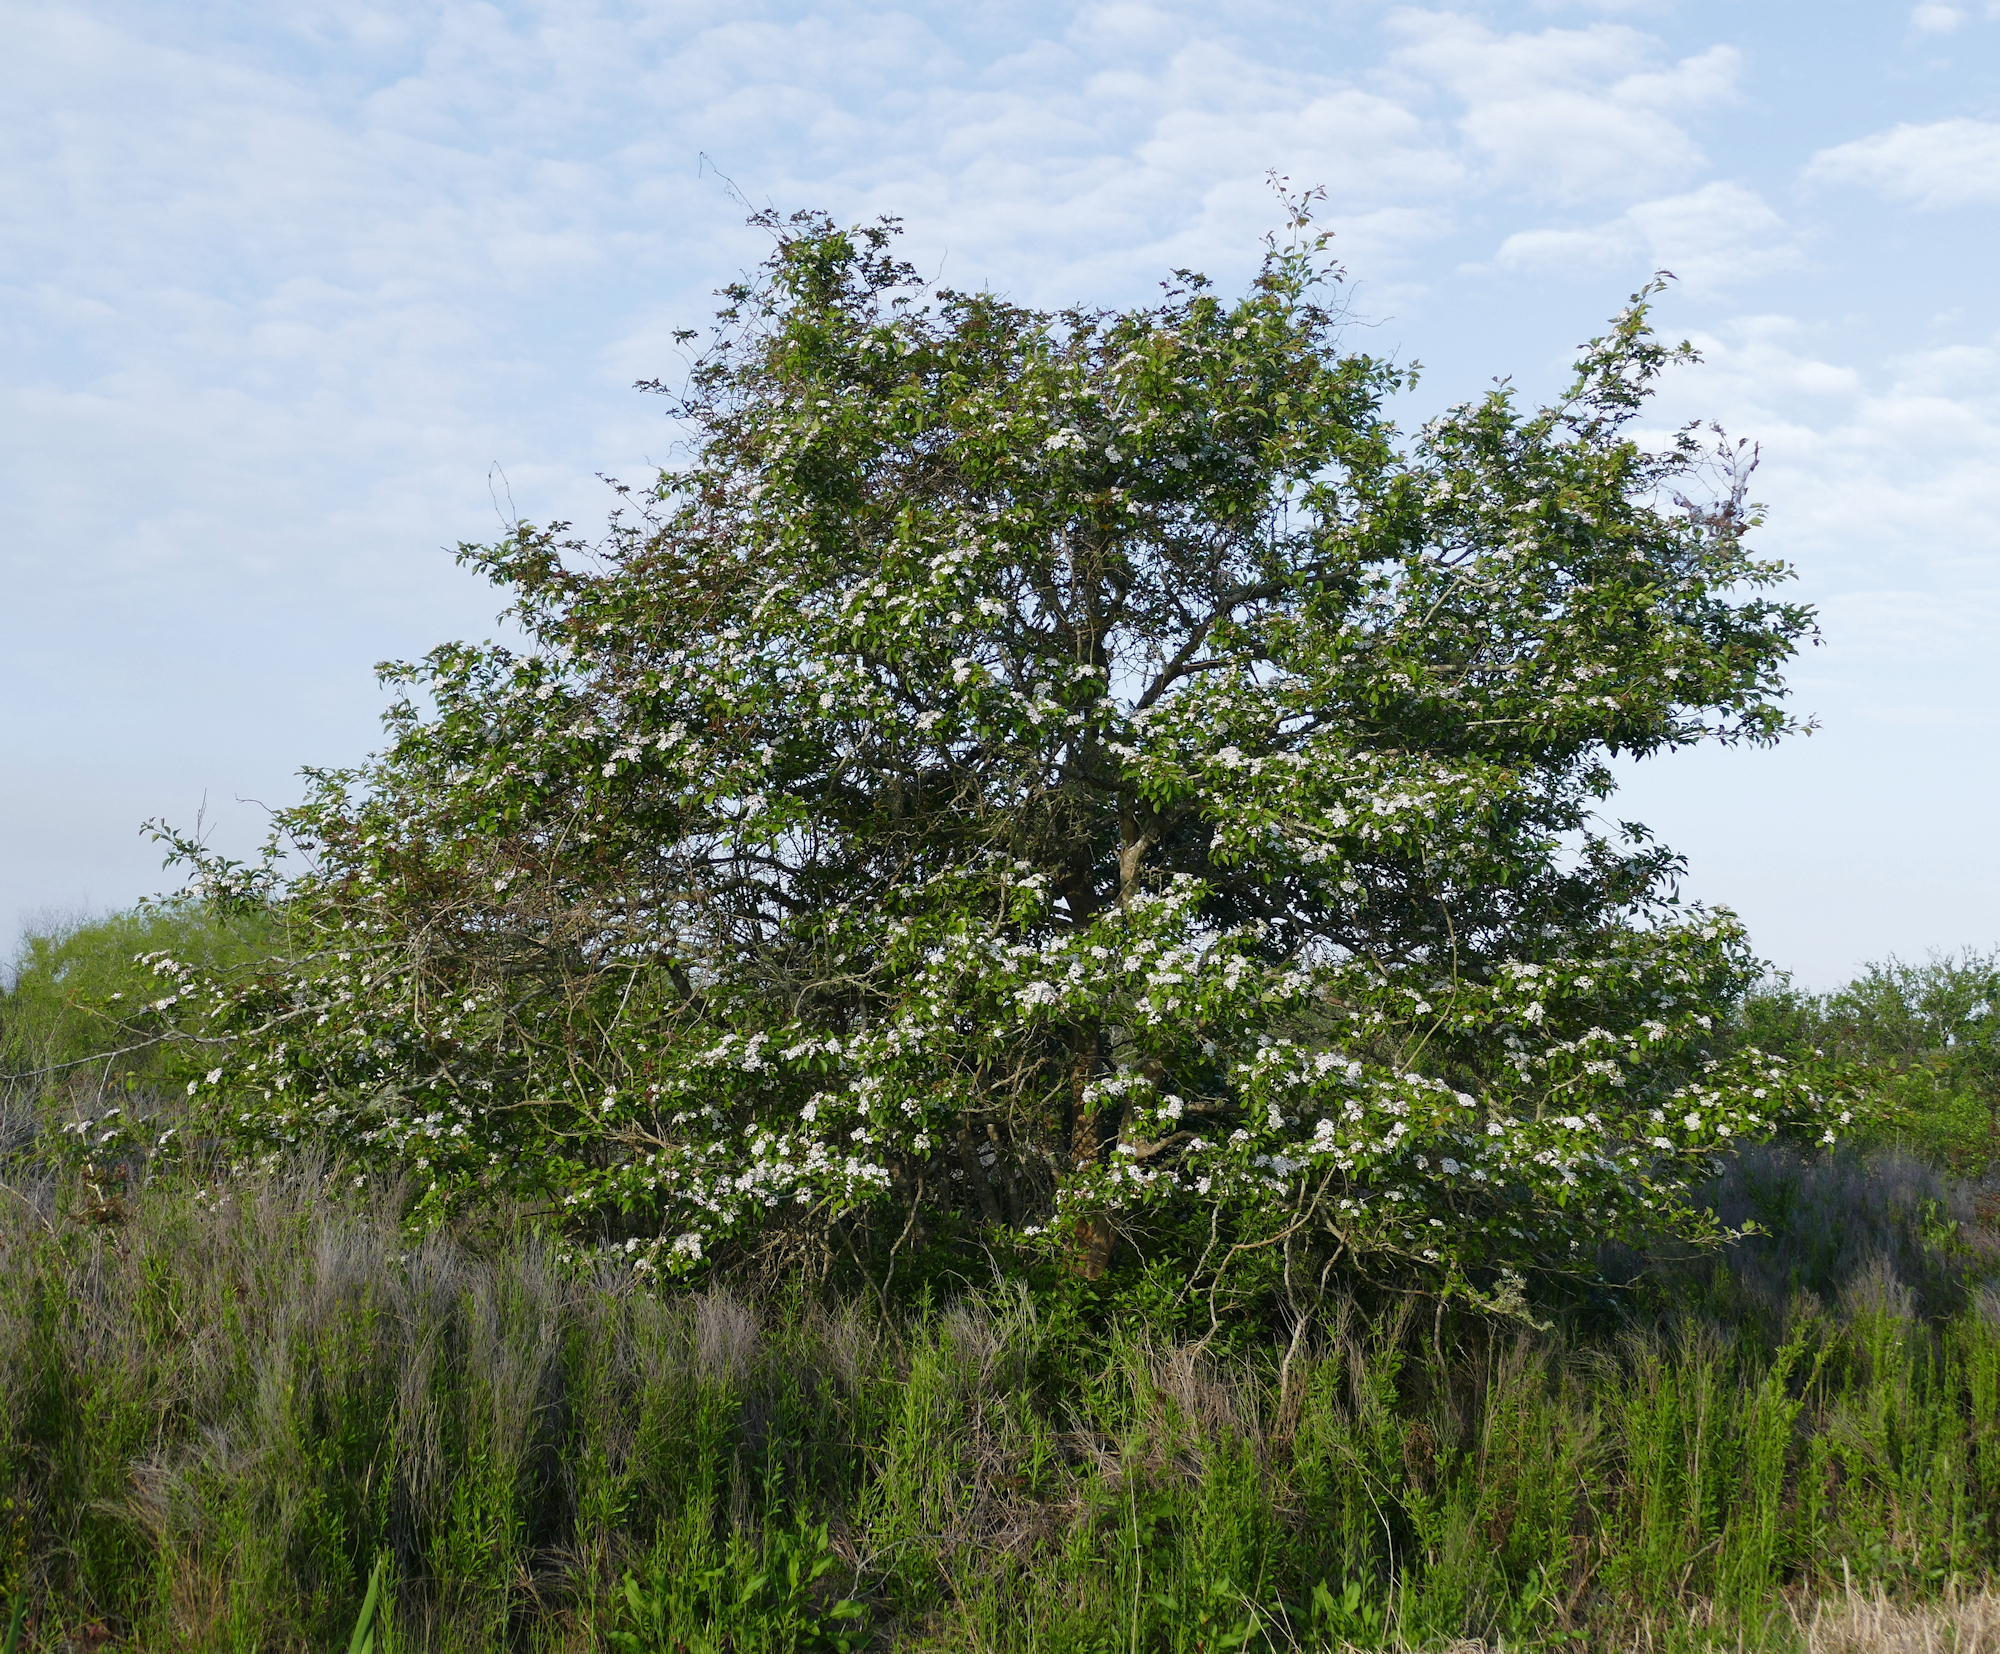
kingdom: Plantae
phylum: Tracheophyta
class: Magnoliopsida
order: Rosales
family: Rosaceae
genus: Crataegus
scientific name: Crataegus viridis
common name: Southernthorn
